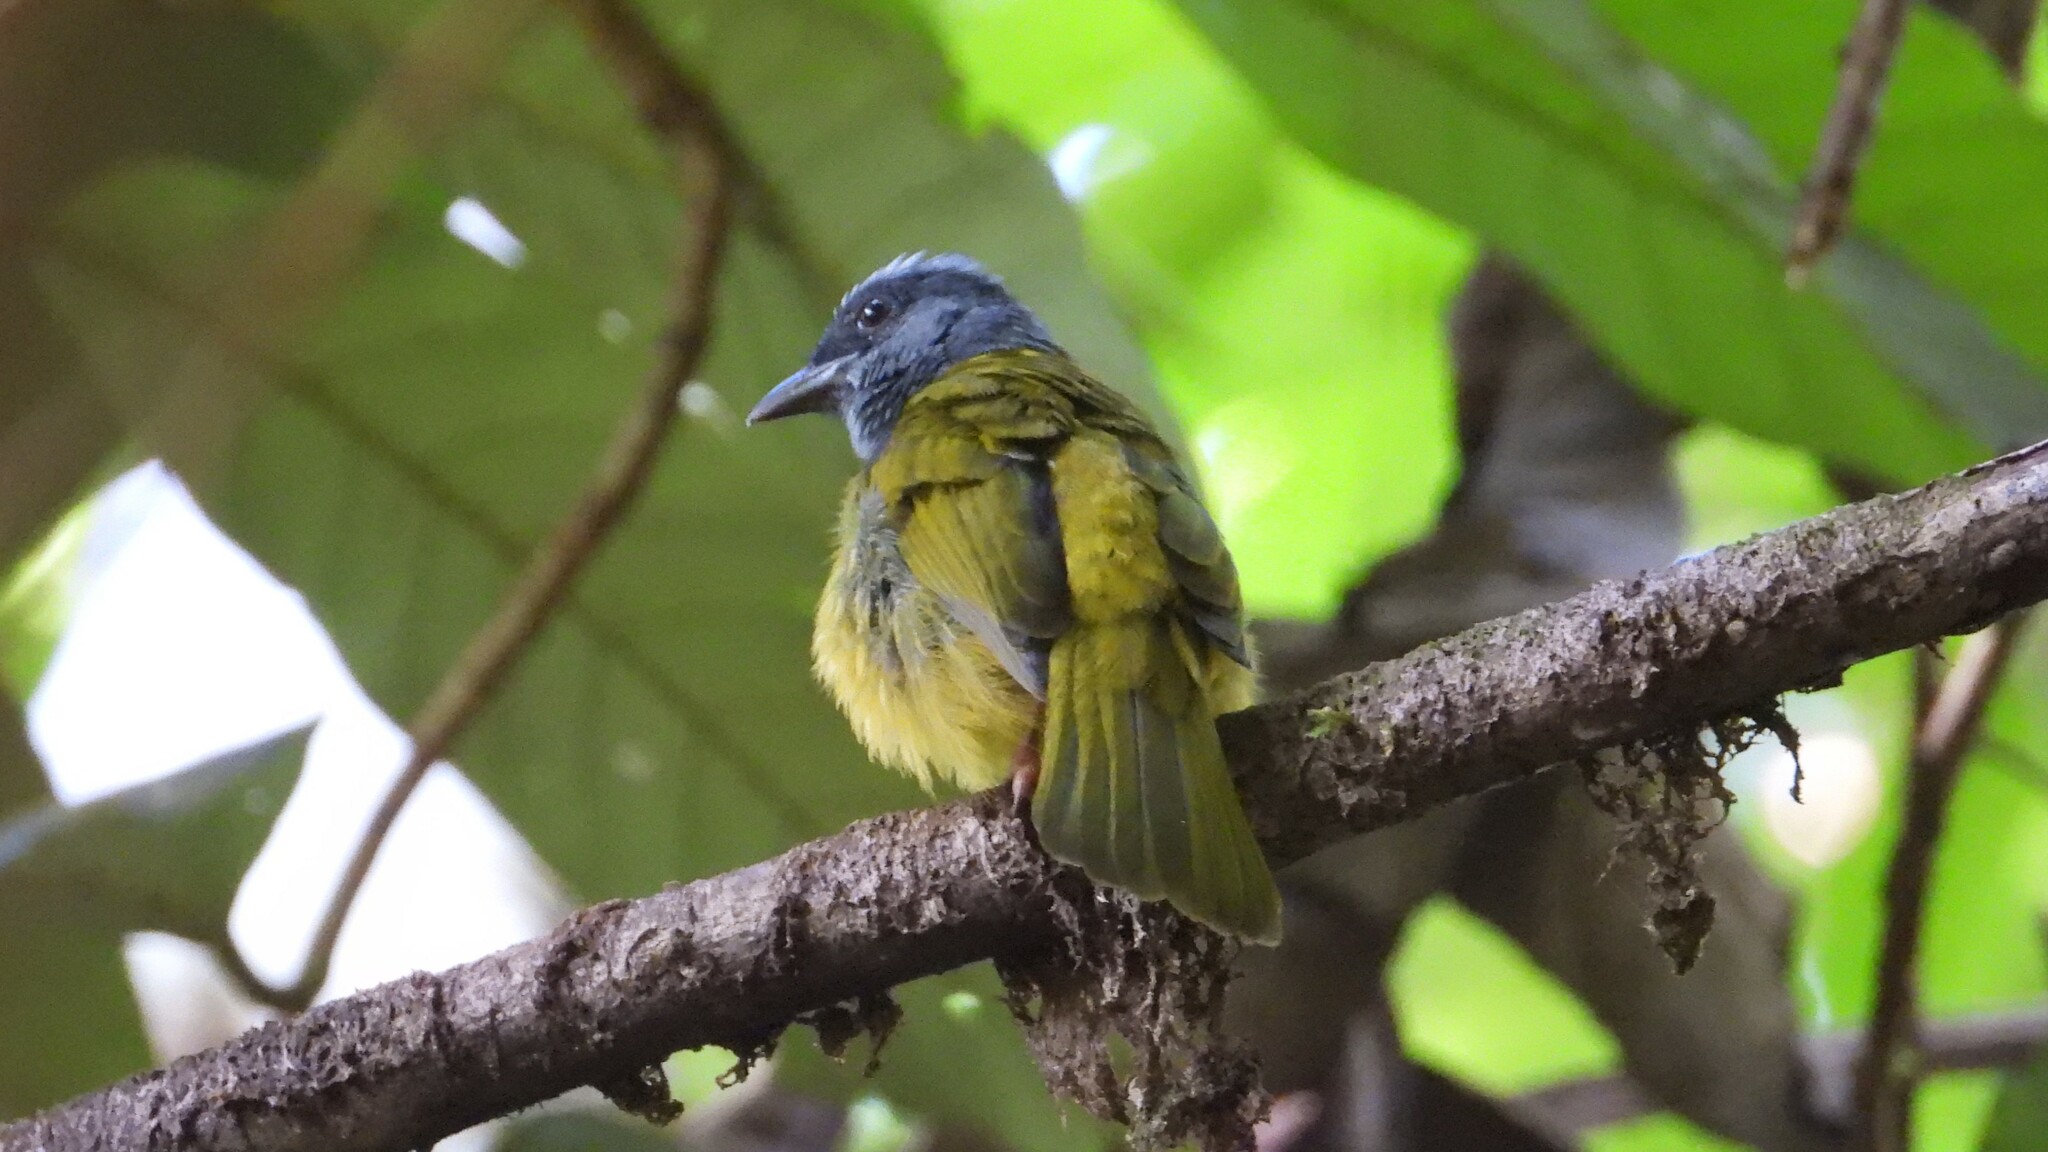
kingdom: Animalia
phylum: Chordata
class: Aves
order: Passeriformes
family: Thraupidae
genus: Saltator
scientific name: Saltator maximus
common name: Buff-throated saltator
